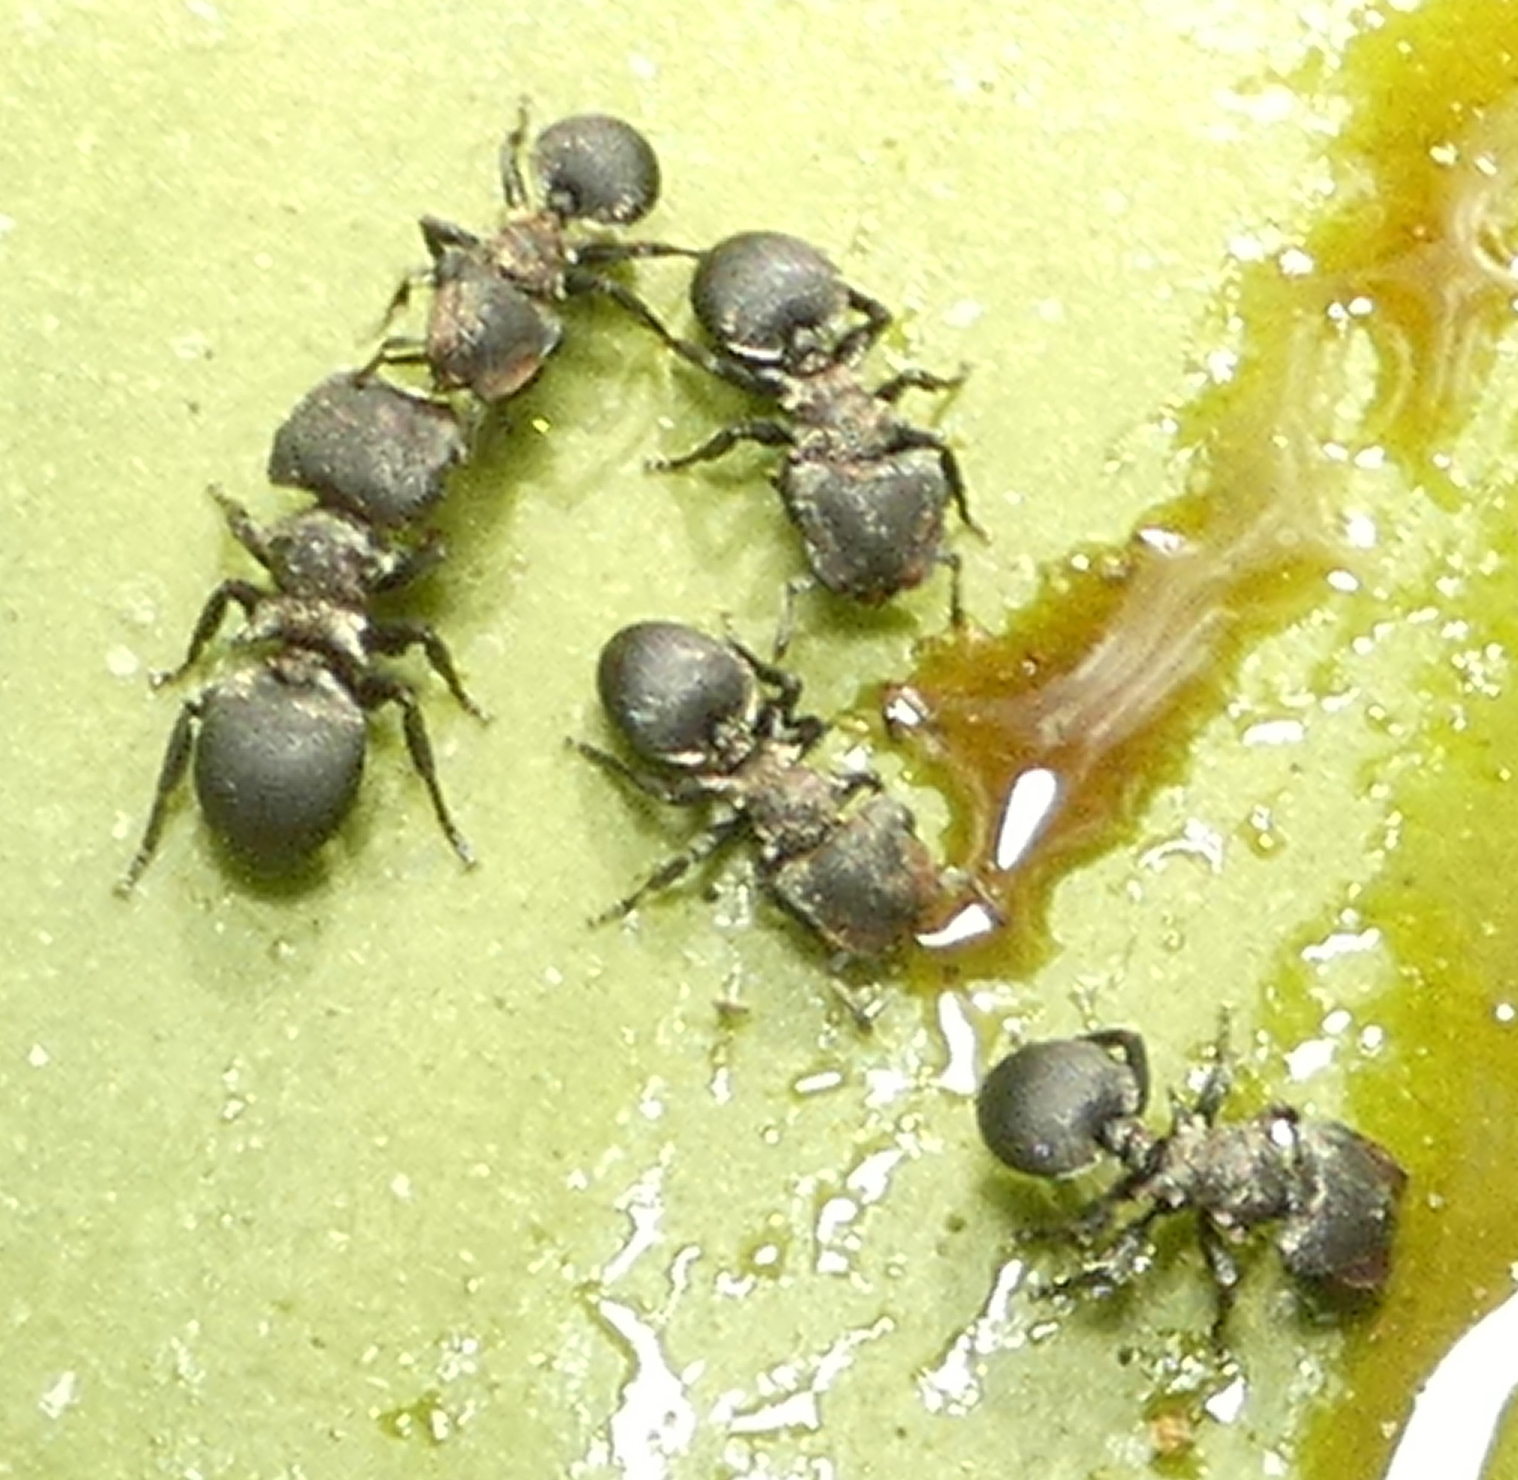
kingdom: Animalia
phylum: Arthropoda
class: Insecta
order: Hymenoptera
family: Formicidae
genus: Cephalotes
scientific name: Cephalotes
